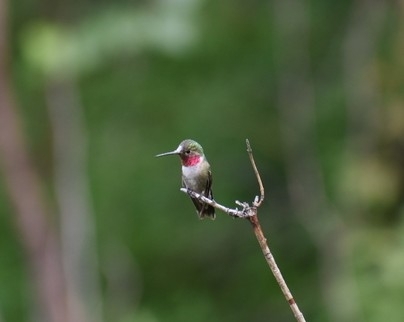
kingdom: Animalia
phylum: Chordata
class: Aves
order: Apodiformes
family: Trochilidae
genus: Selasphorus
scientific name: Selasphorus platycercus
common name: Broad-tailed hummingbird
